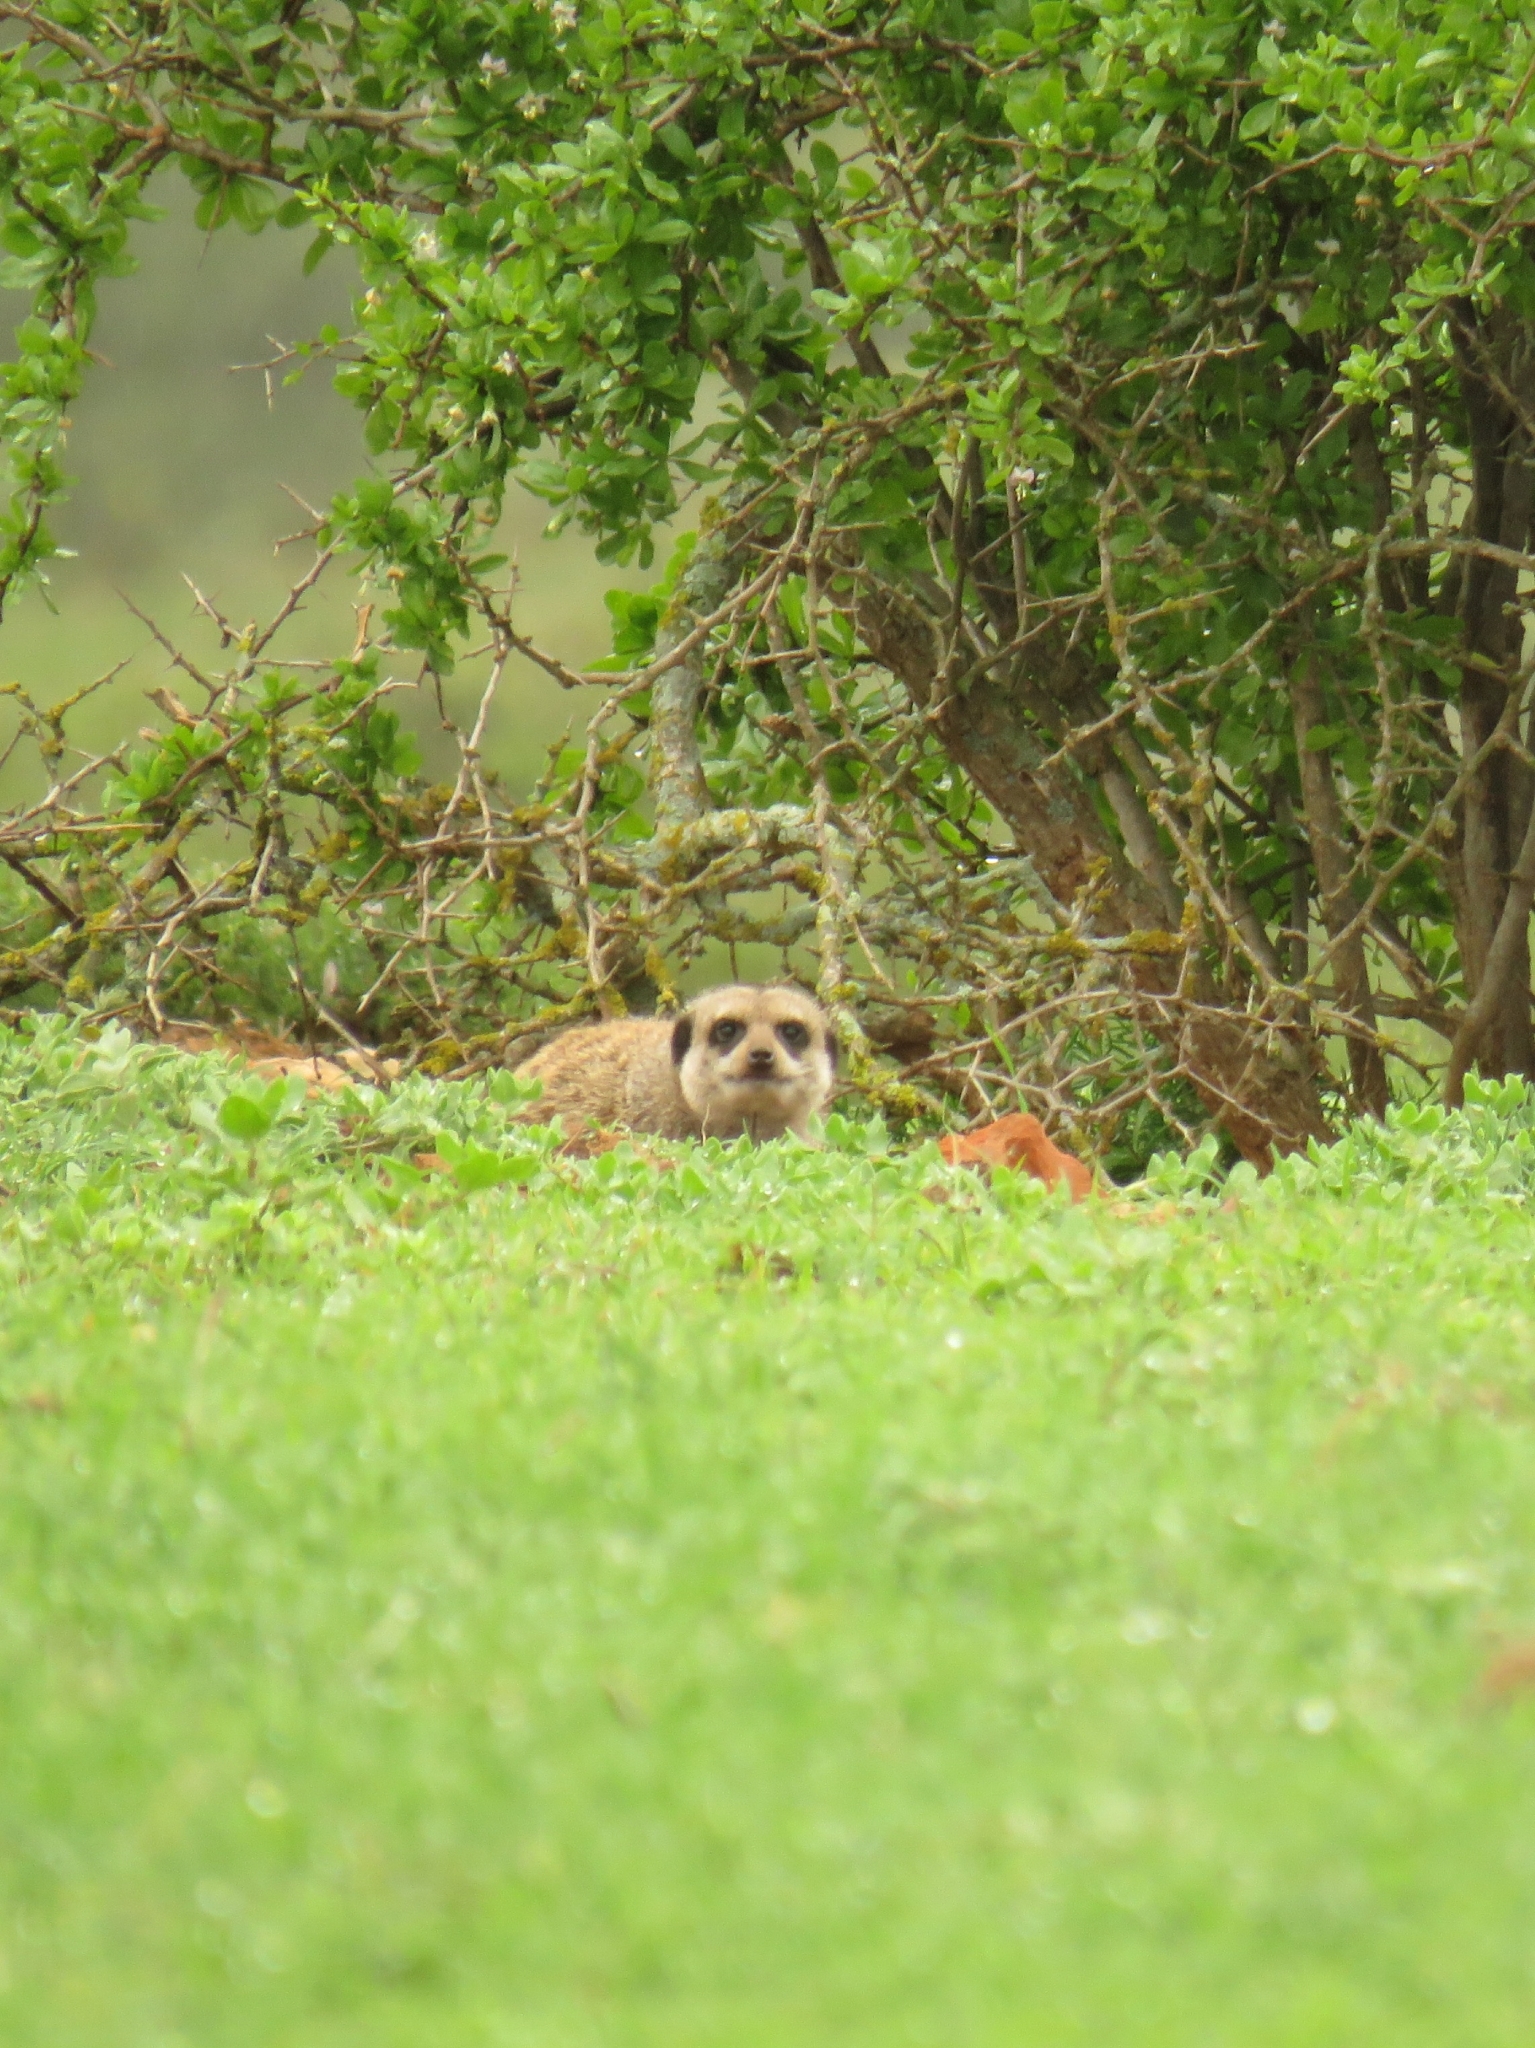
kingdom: Animalia
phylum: Chordata
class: Mammalia
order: Carnivora
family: Herpestidae
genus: Suricata
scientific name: Suricata suricatta
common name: Meerkat
